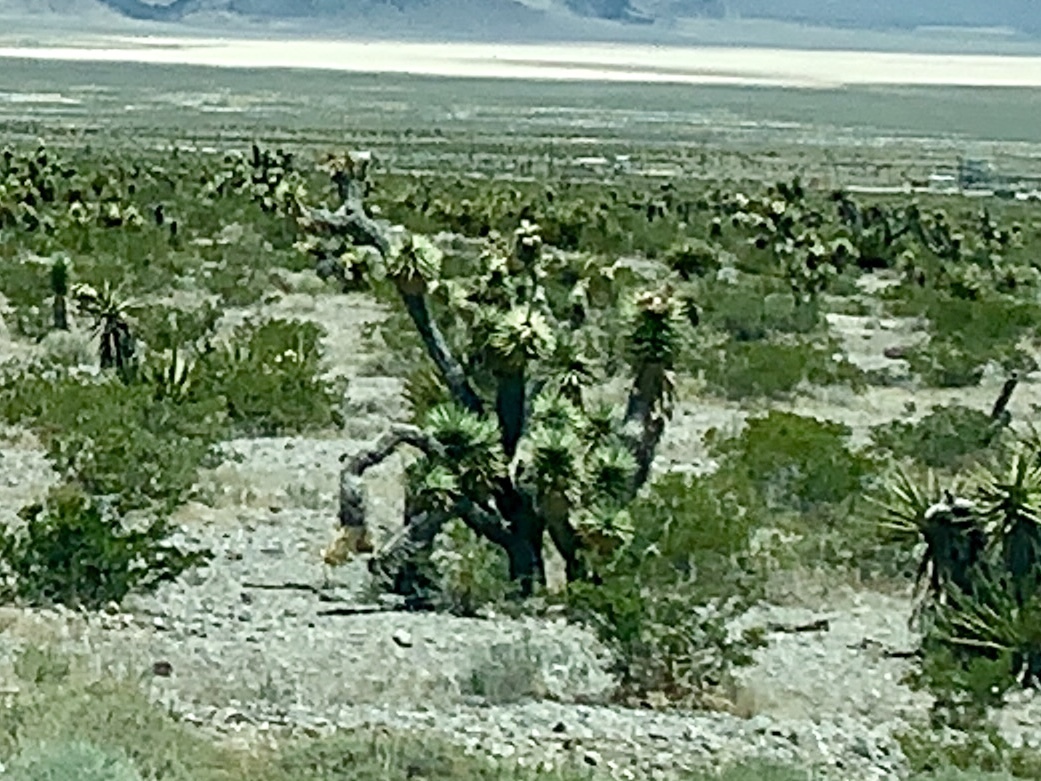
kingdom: Plantae
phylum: Tracheophyta
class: Liliopsida
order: Asparagales
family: Asparagaceae
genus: Yucca
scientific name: Yucca brevifolia
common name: Joshua tree
